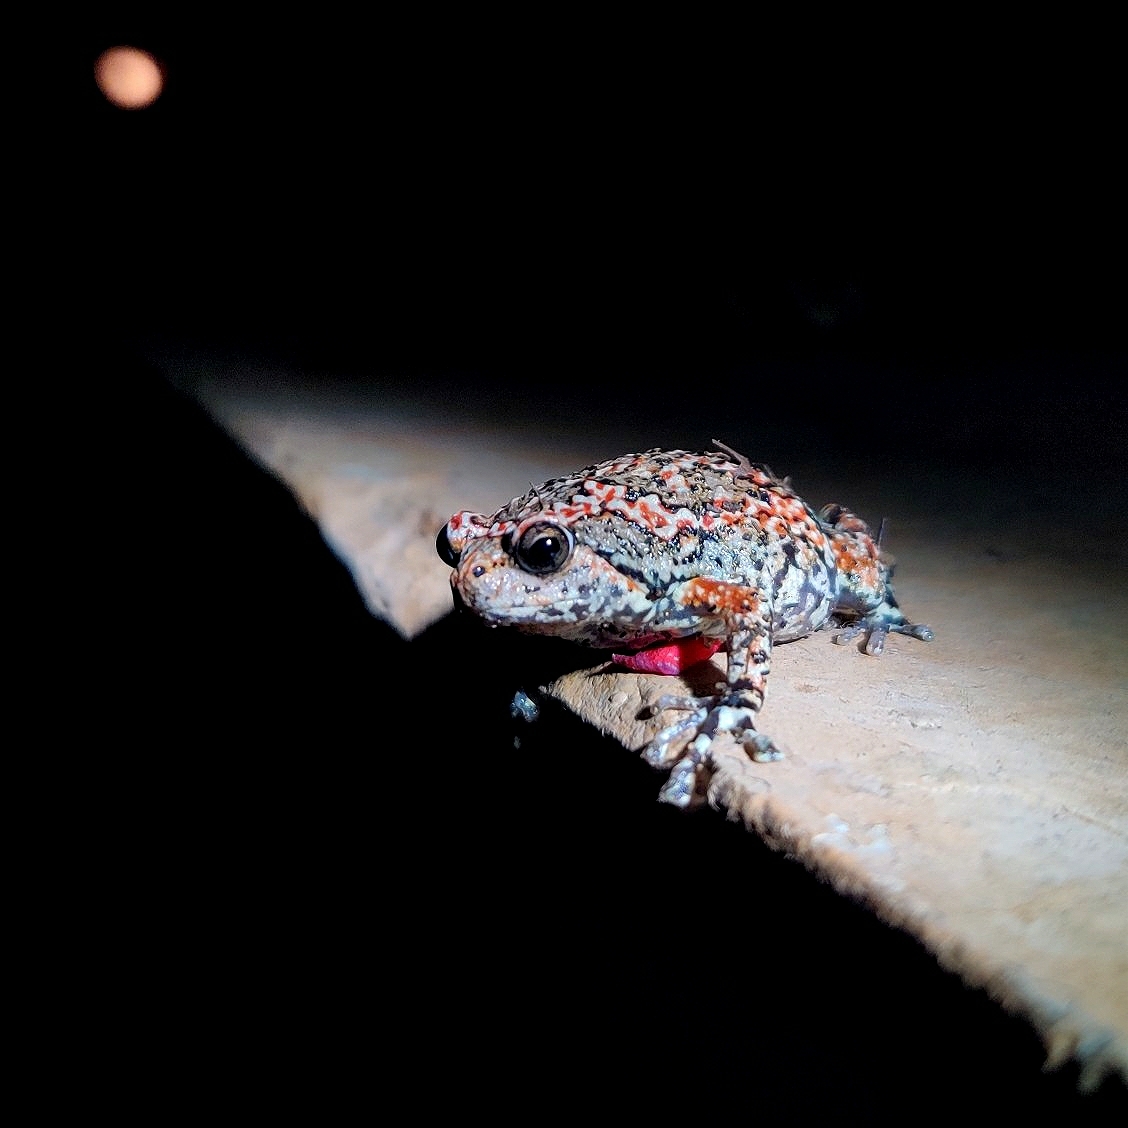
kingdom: Animalia
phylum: Chordata
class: Amphibia
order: Anura
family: Microhylidae
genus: Uperodon
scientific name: Uperodon taprobanicus
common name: Ceylon kaloula
